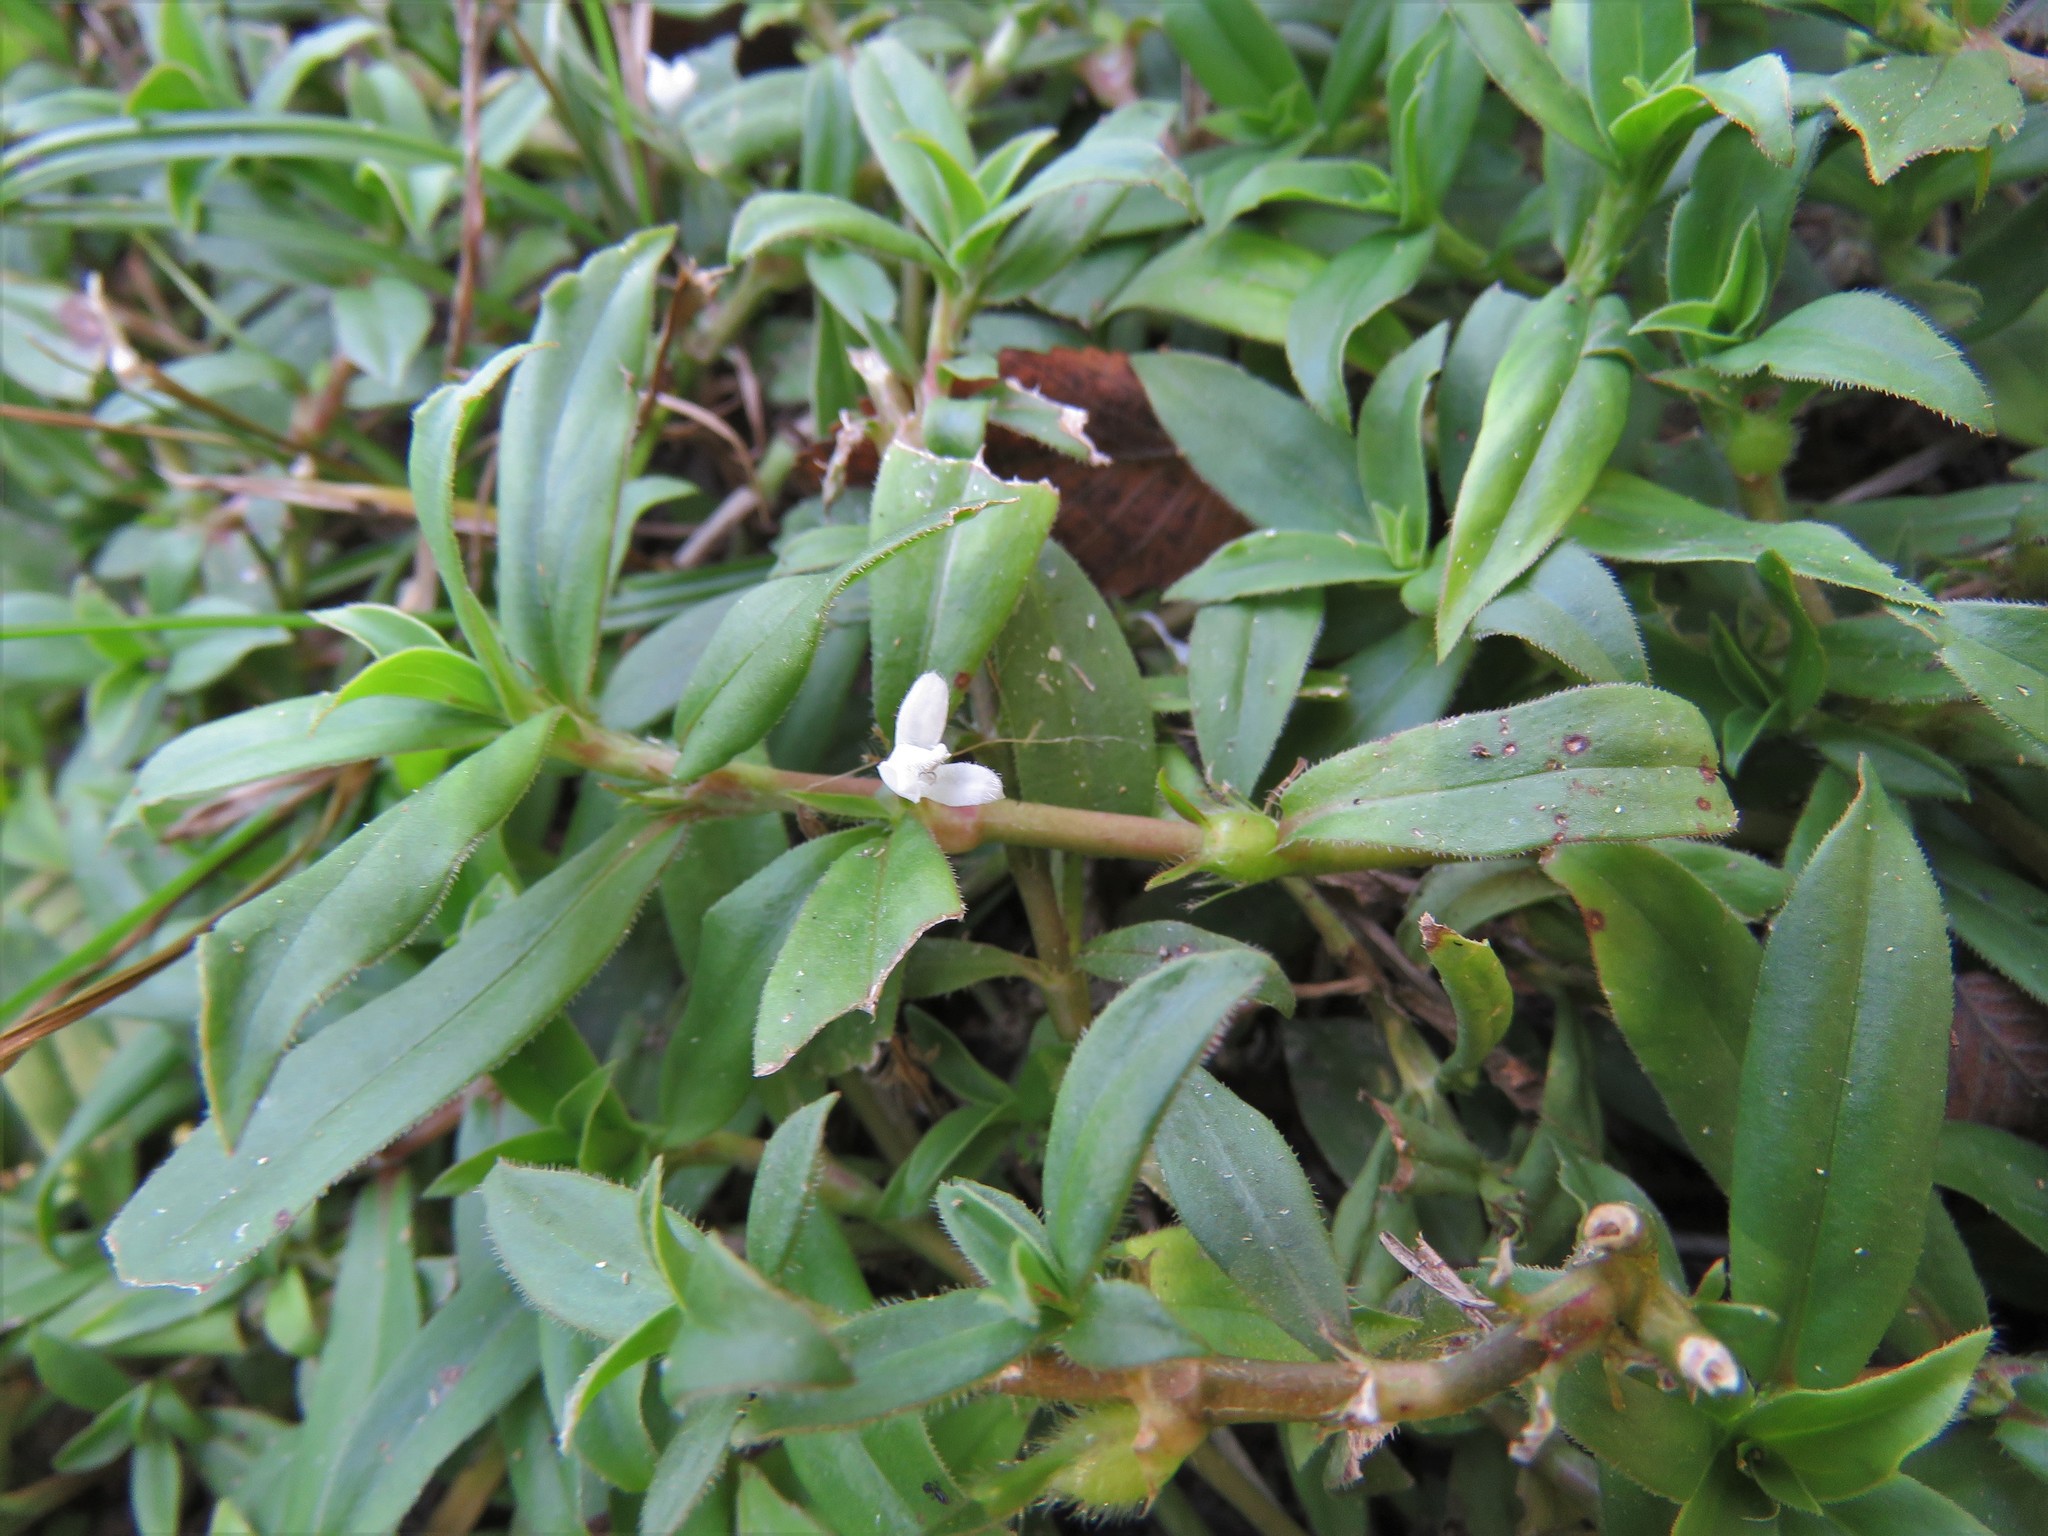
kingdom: Plantae
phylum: Tracheophyta
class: Magnoliopsida
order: Gentianales
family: Rubiaceae
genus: Diodia
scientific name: Diodia virginiana
